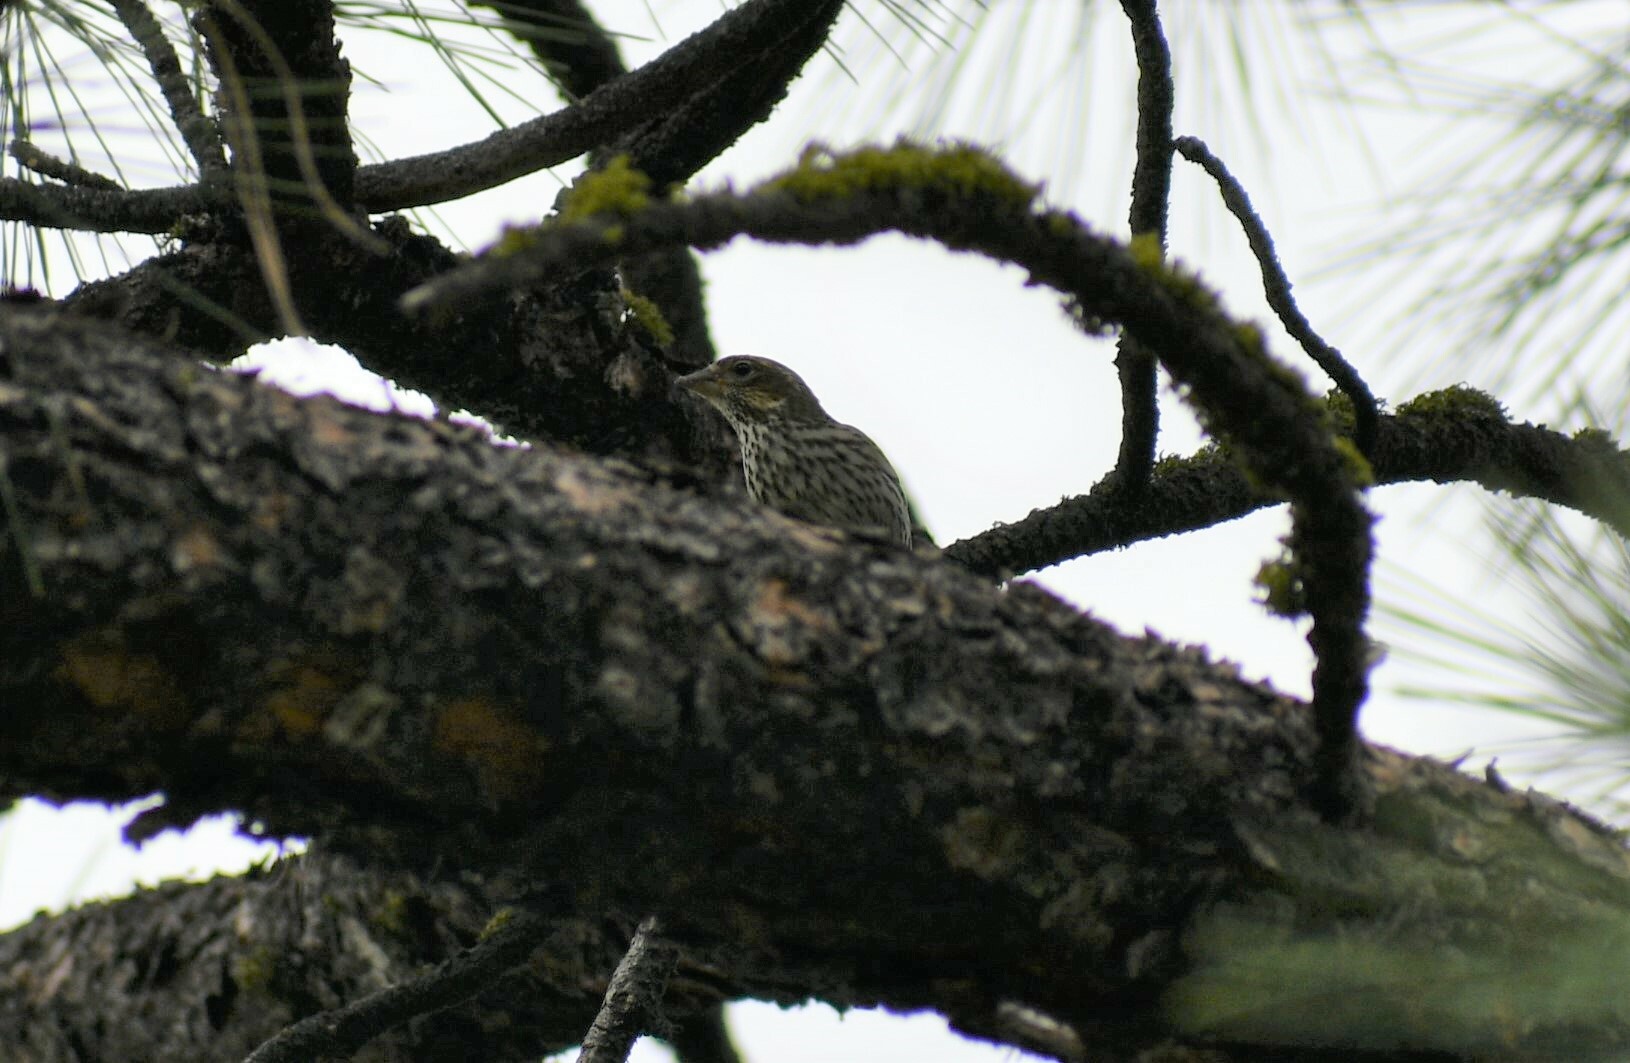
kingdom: Animalia
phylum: Chordata
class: Aves
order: Passeriformes
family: Fringillidae
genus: Haemorhous
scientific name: Haemorhous cassinii
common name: Cassin's finch
